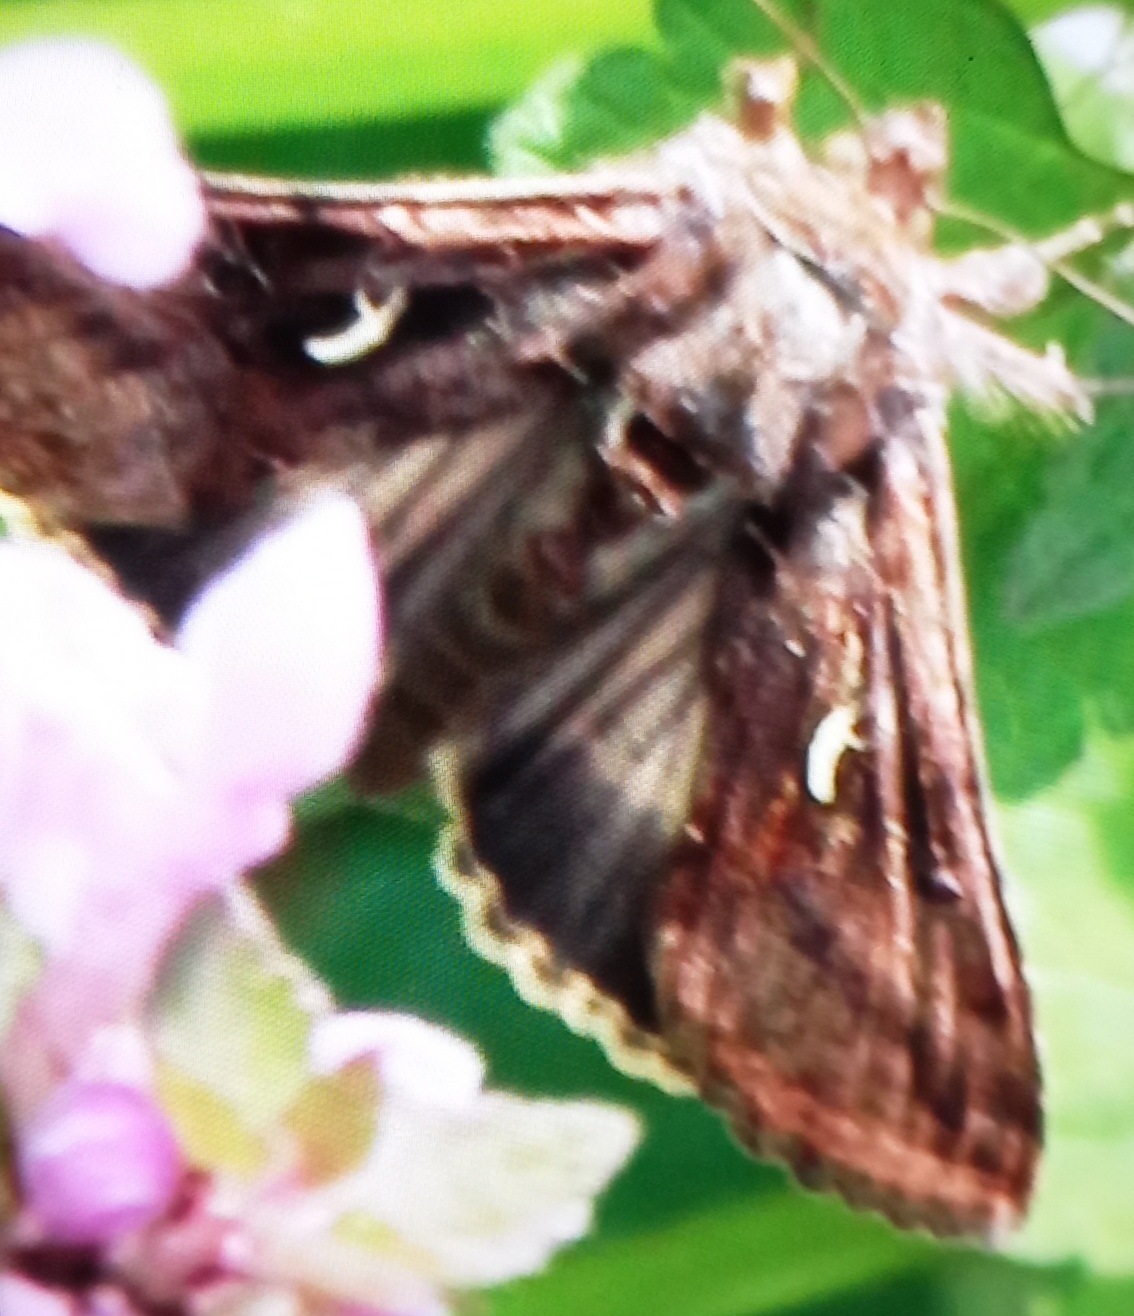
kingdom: Animalia
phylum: Arthropoda
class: Insecta
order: Lepidoptera
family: Noctuidae
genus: Autographa
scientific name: Autographa gamma
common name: Silver y
